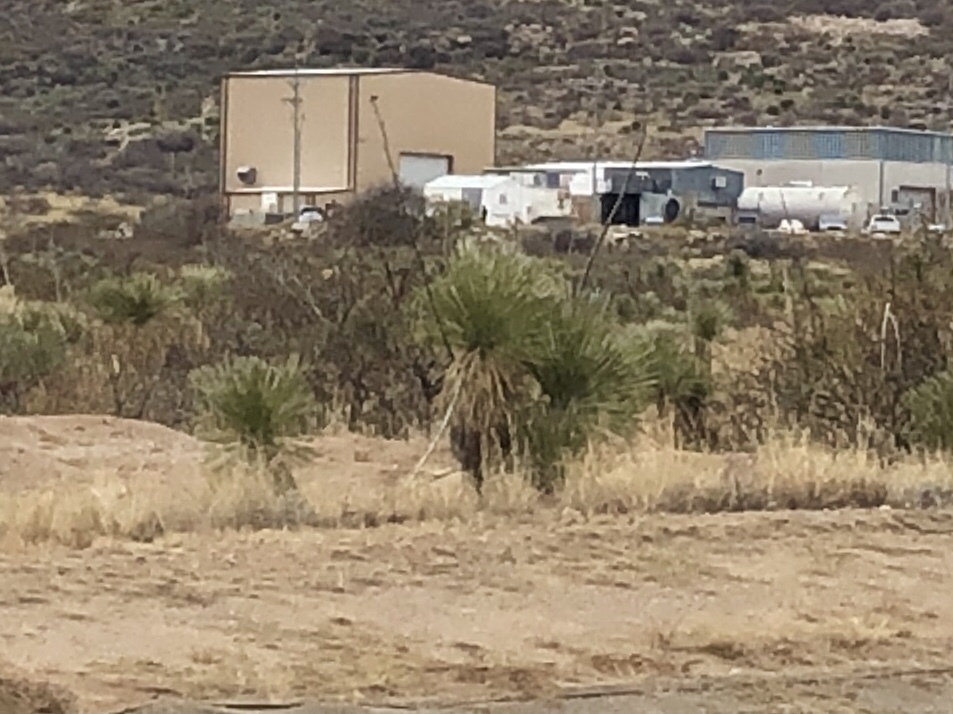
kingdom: Plantae
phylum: Tracheophyta
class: Liliopsida
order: Asparagales
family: Asparagaceae
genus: Yucca
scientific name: Yucca elata
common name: Palmella
